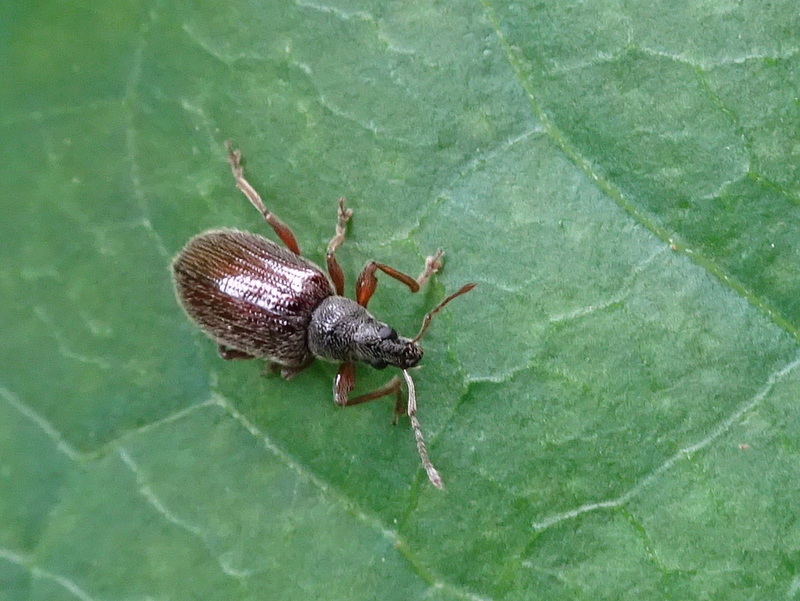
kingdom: Animalia
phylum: Arthropoda
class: Insecta
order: Coleoptera
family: Curculionidae
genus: Phyllobius
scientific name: Phyllobius oblongus
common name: Brown leaf weevil
